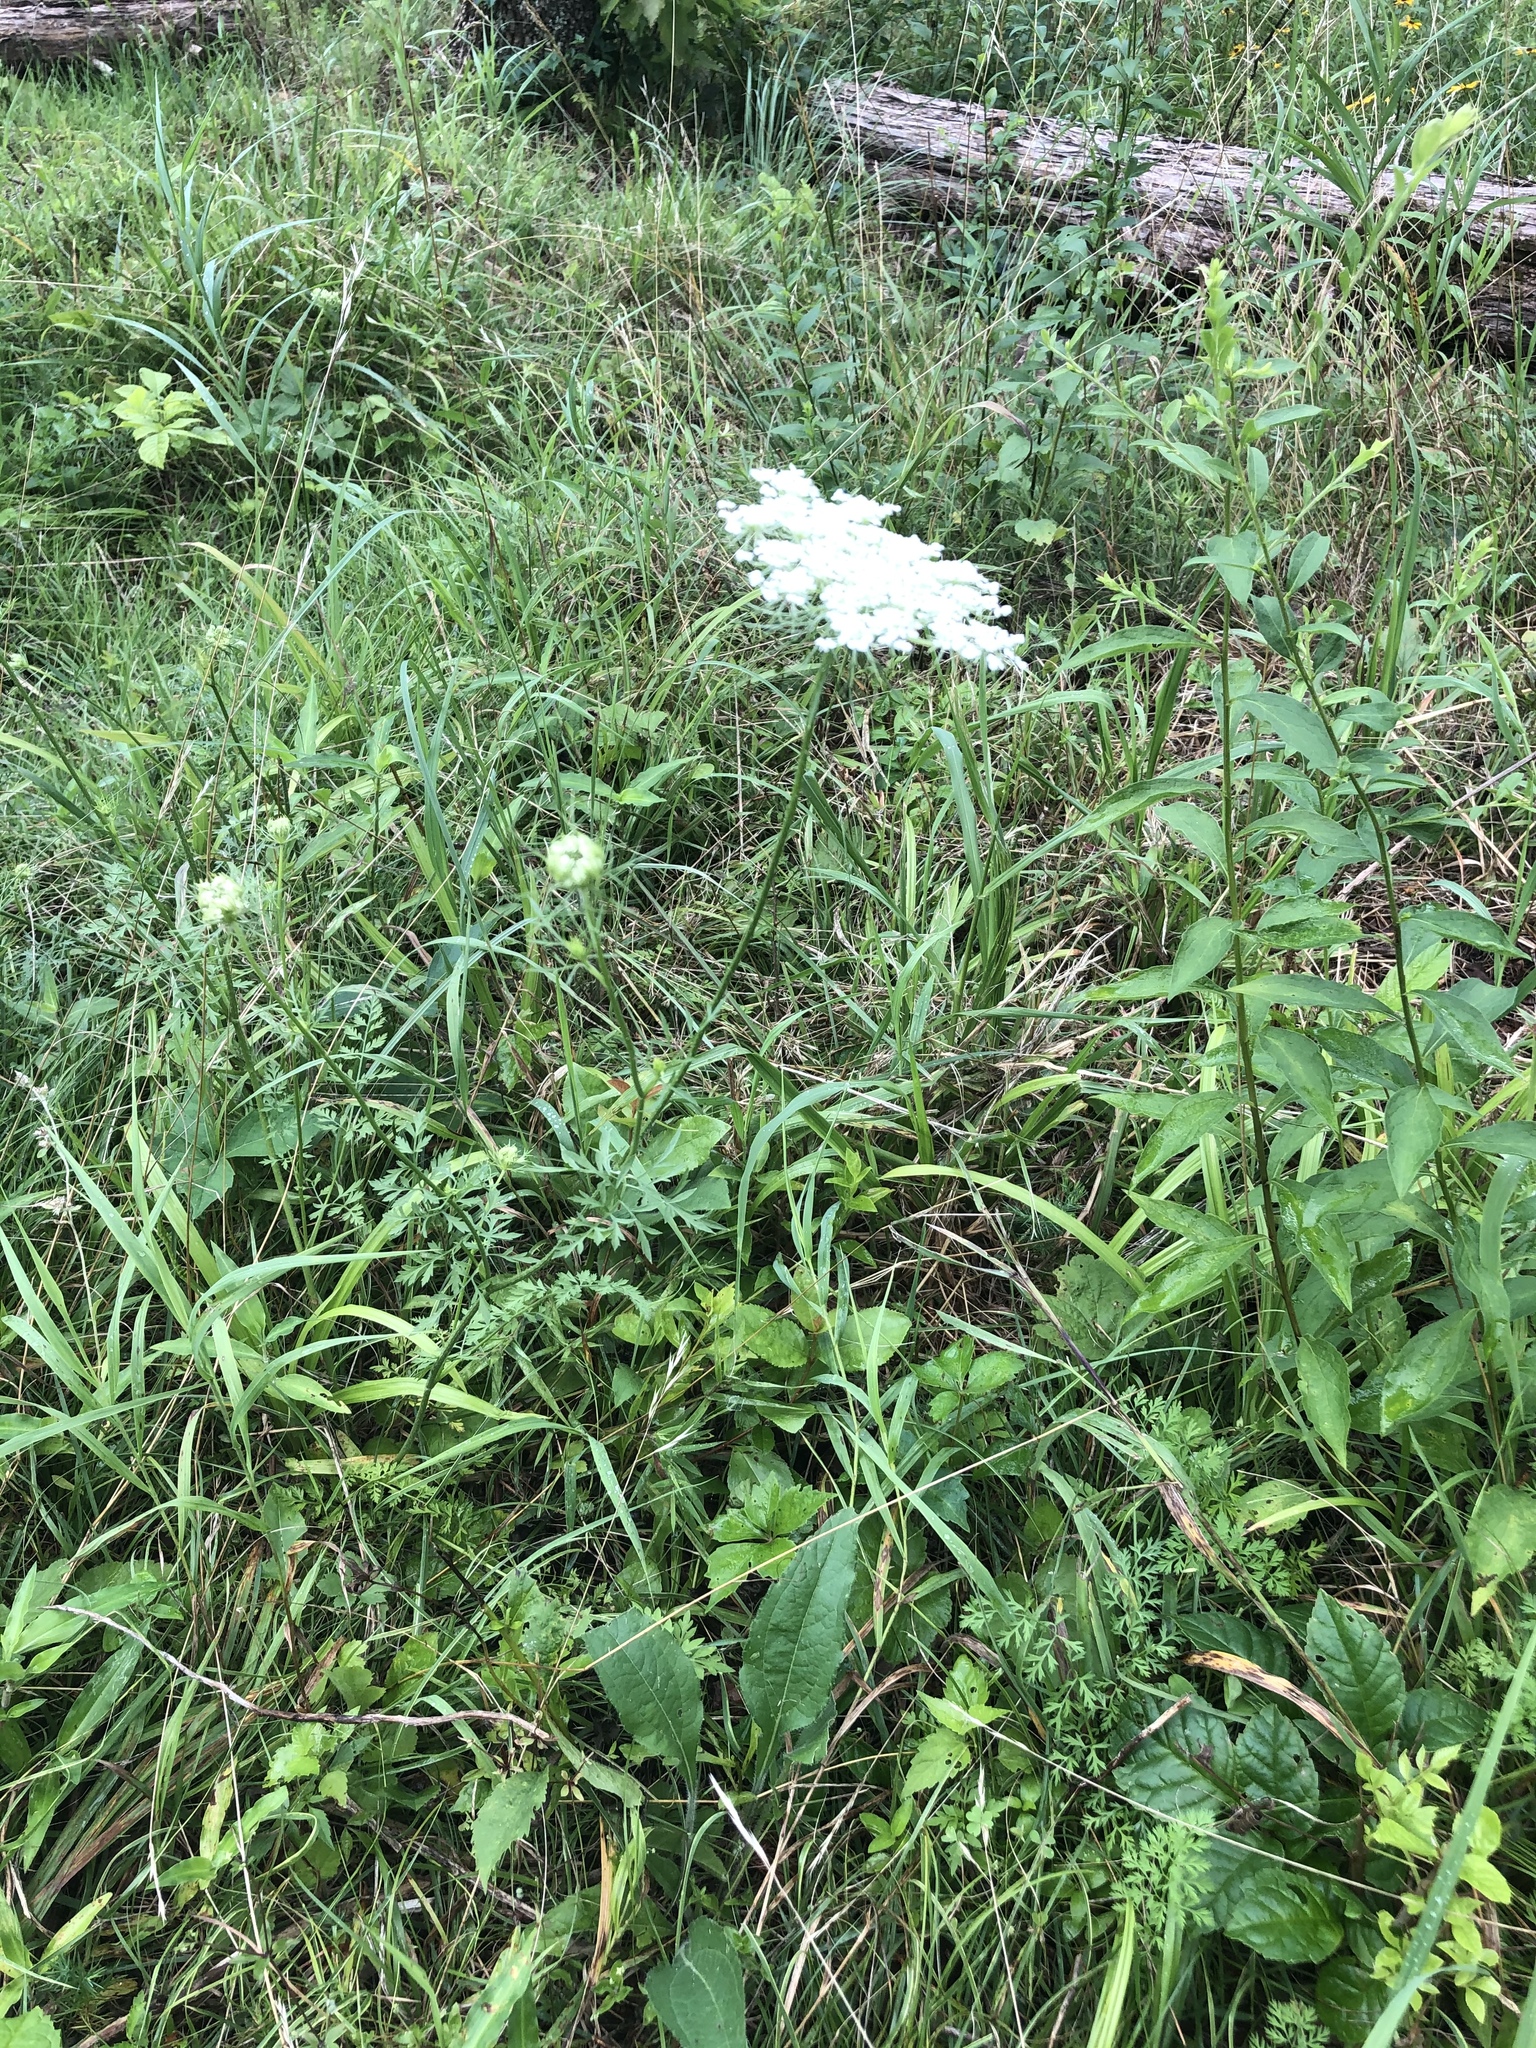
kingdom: Plantae
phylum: Tracheophyta
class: Magnoliopsida
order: Apiales
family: Apiaceae
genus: Daucus
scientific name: Daucus carota
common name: Wild carrot
